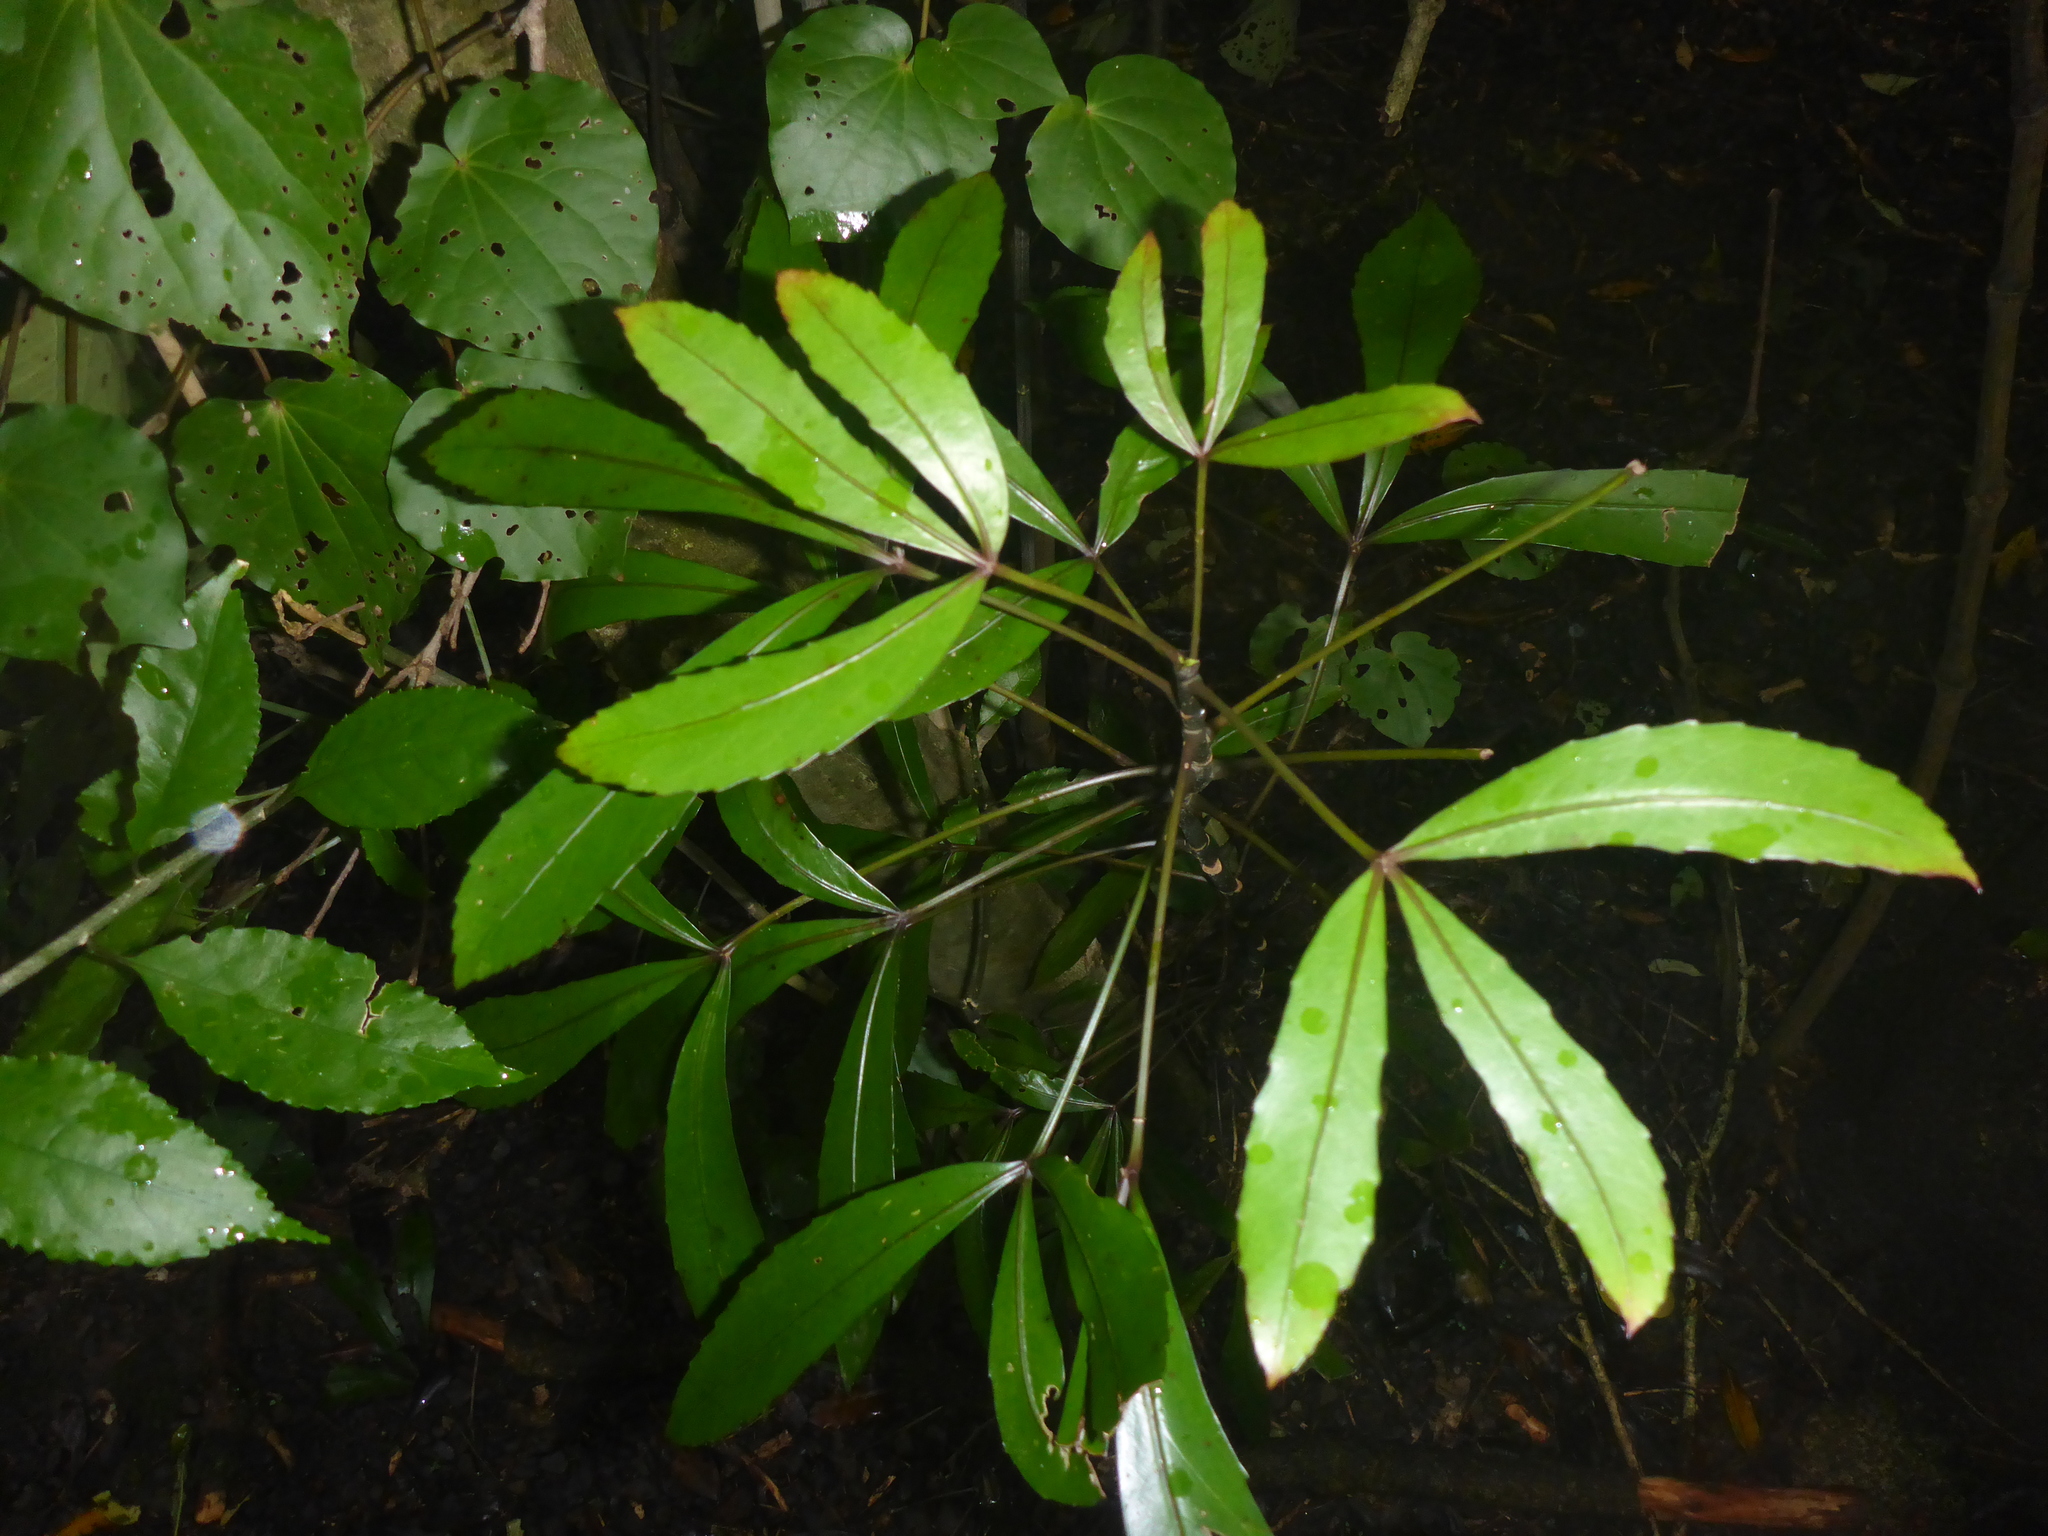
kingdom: Plantae
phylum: Tracheophyta
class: Magnoliopsida
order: Apiales
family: Araliaceae
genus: Pseudopanax
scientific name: Pseudopanax
